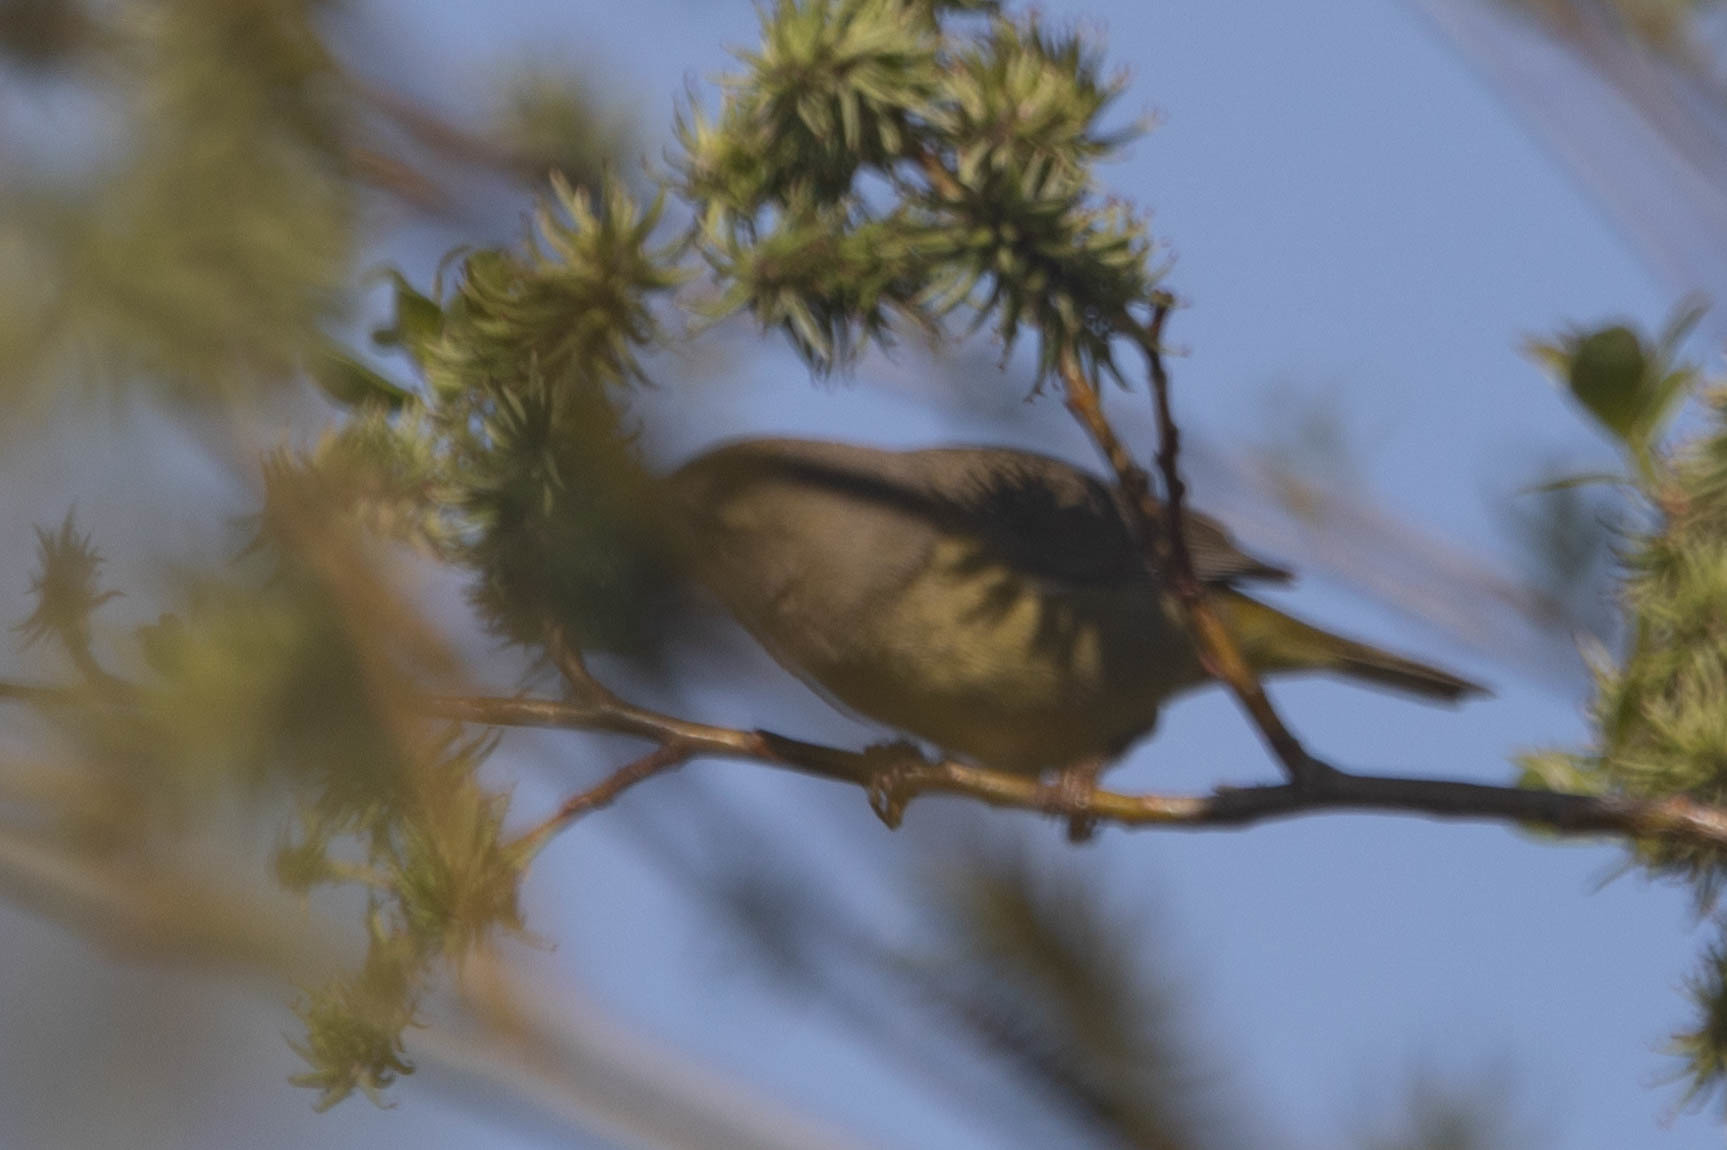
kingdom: Animalia
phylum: Chordata
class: Aves
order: Passeriformes
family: Parulidae
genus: Leiothlypis
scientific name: Leiothlypis celata
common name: Orange-crowned warbler
